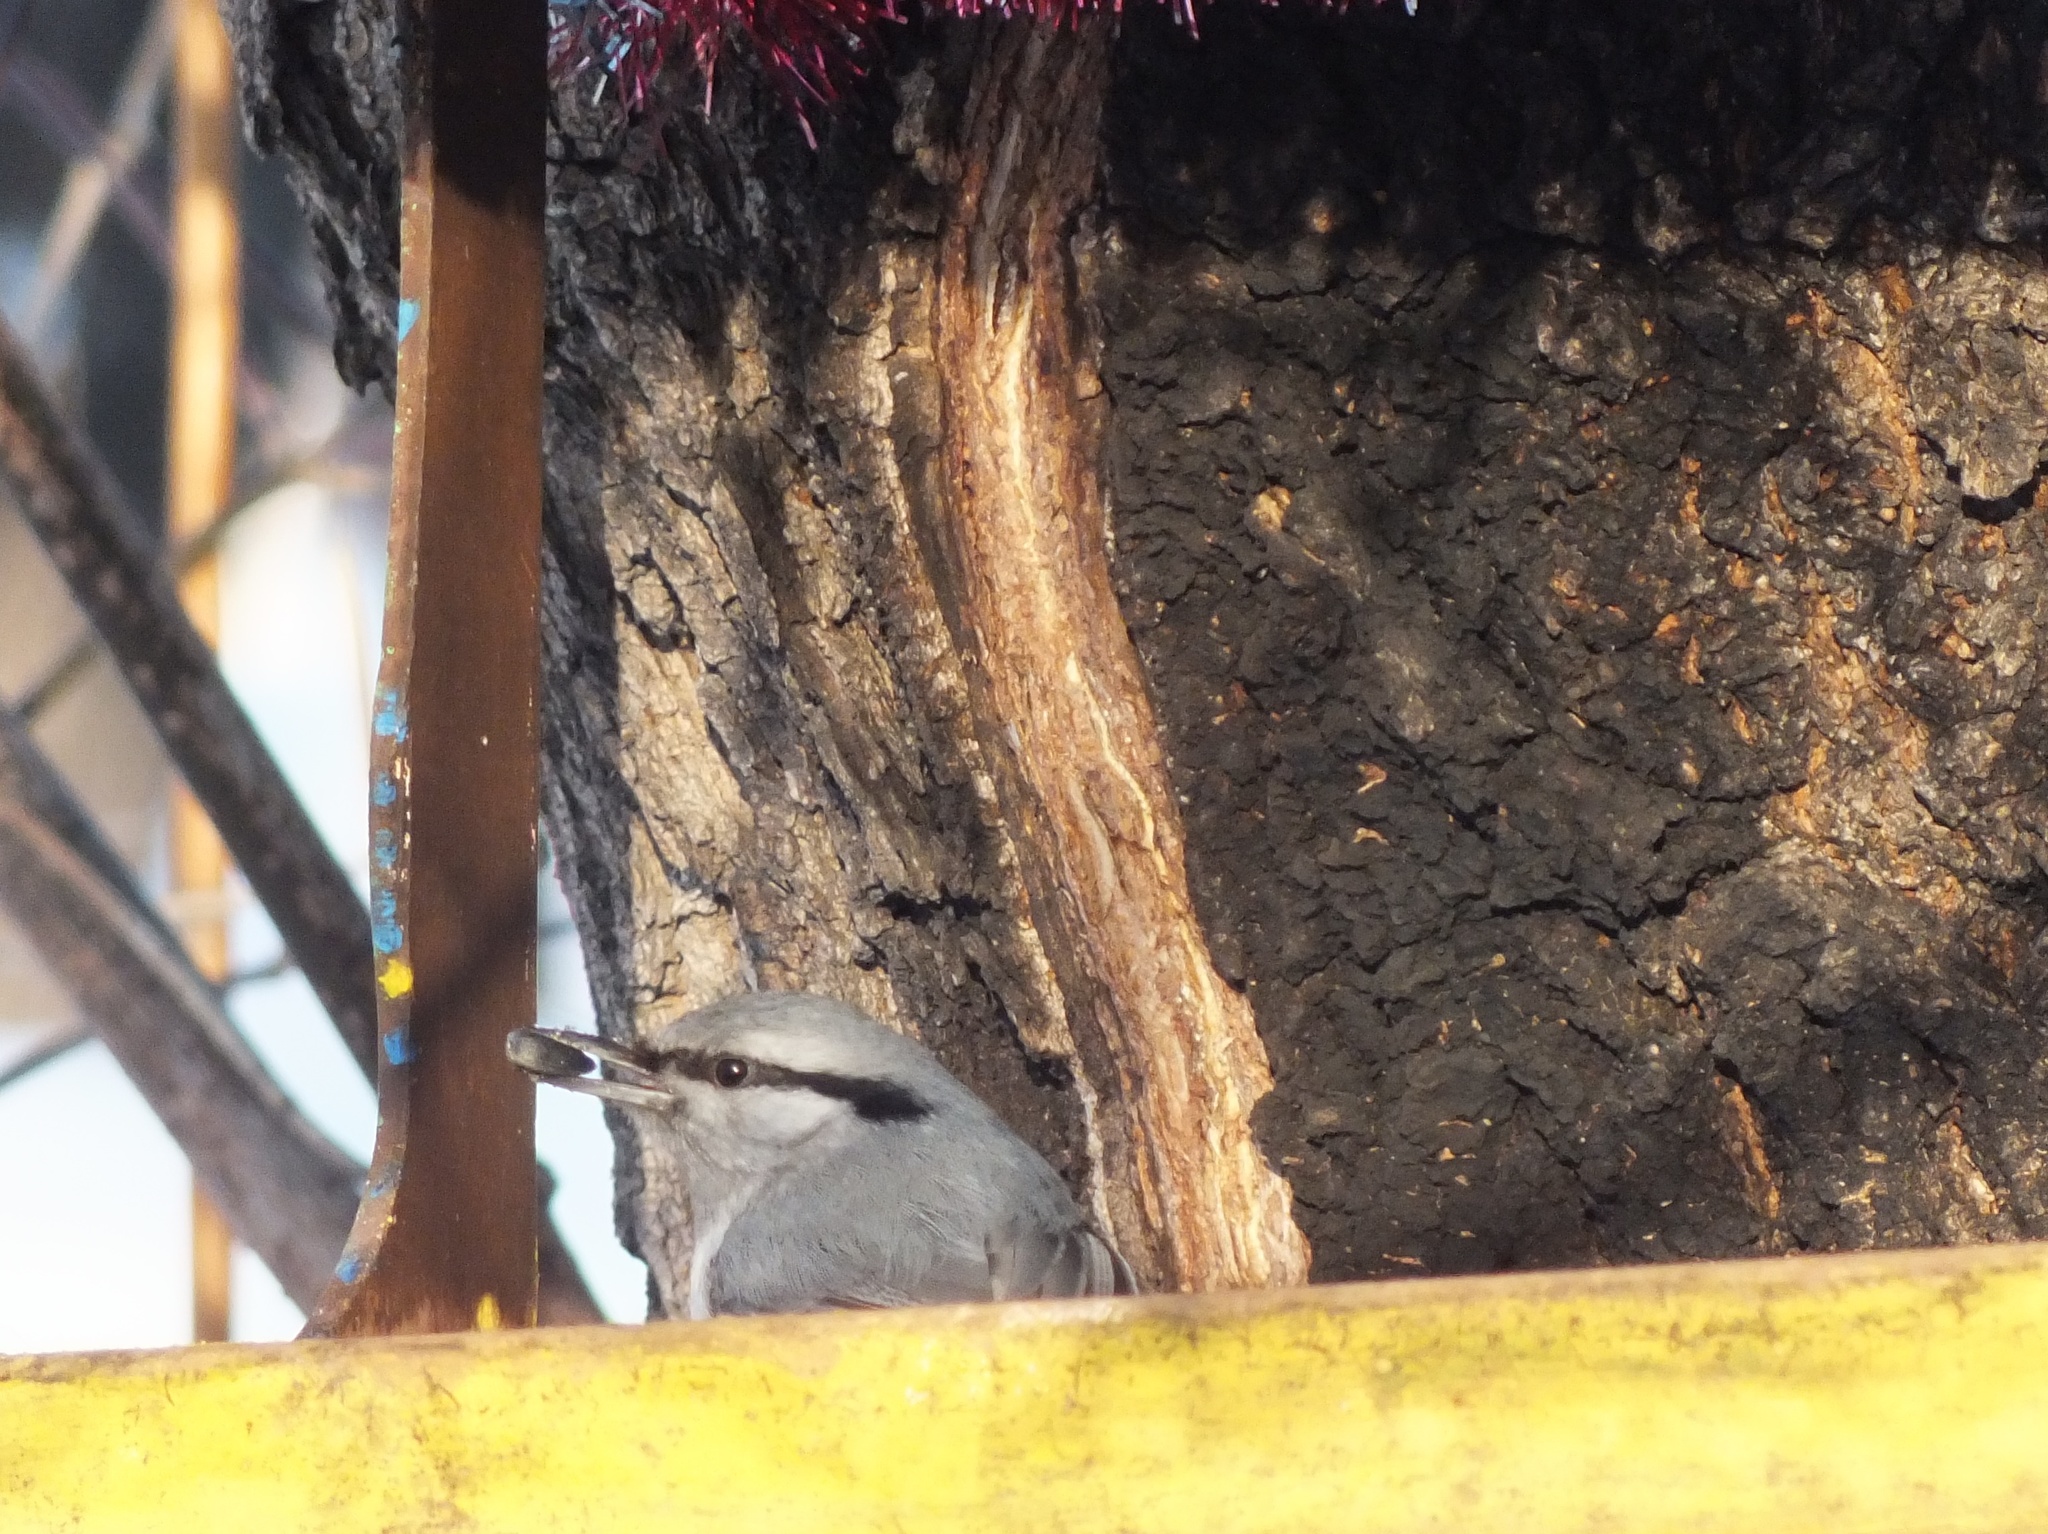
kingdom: Animalia
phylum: Chordata
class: Aves
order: Passeriformes
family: Sittidae
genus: Sitta
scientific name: Sitta europaea
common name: Eurasian nuthatch
